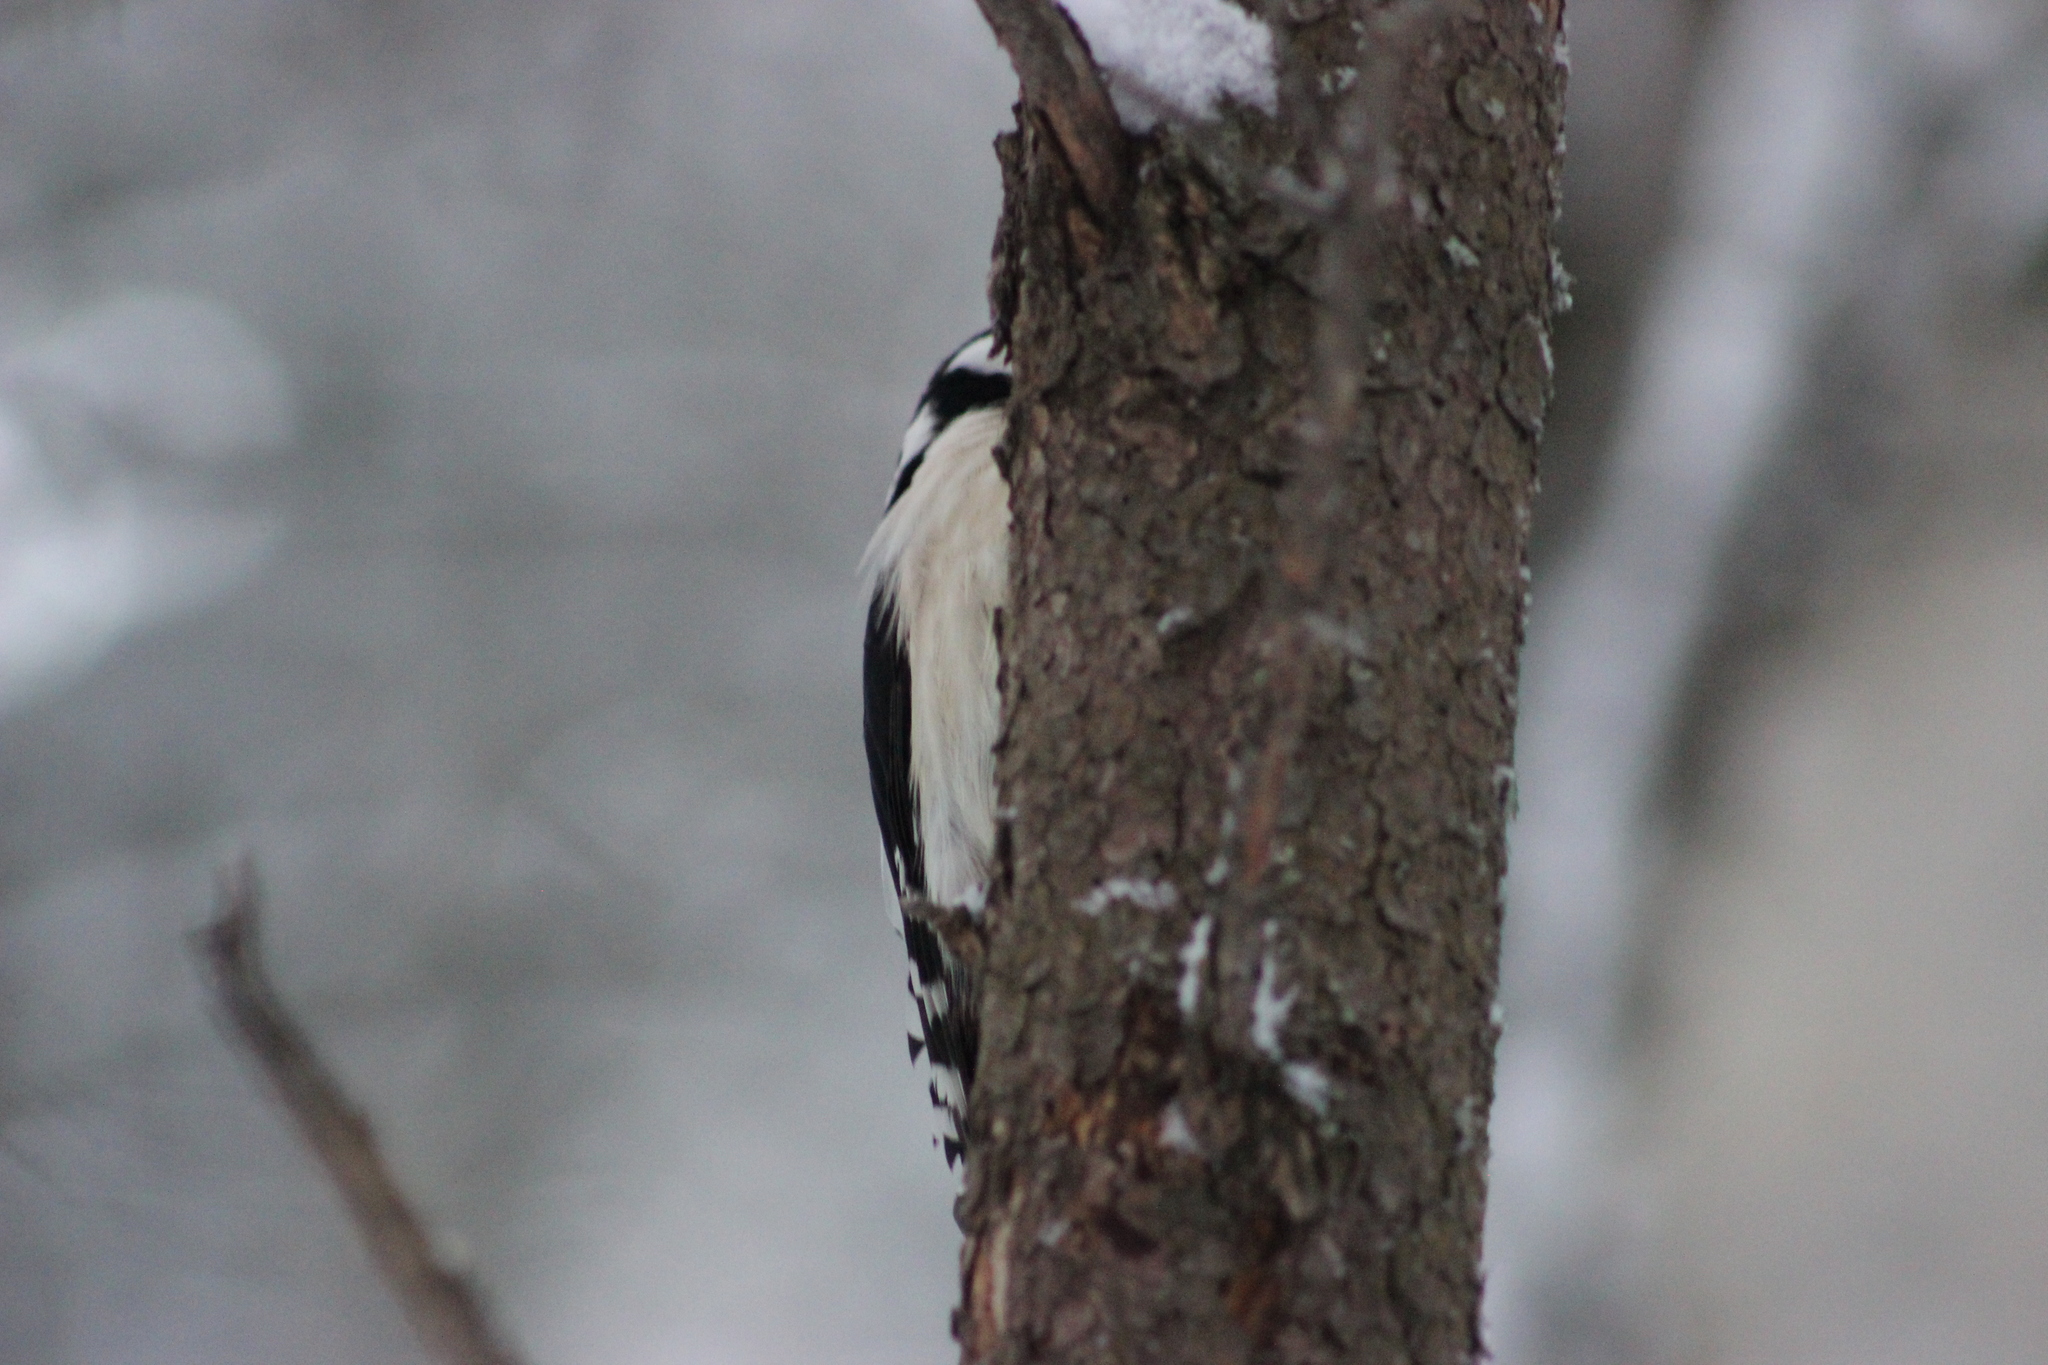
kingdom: Animalia
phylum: Chordata
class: Aves
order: Piciformes
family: Picidae
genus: Dendrocopos
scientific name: Dendrocopos major
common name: Great spotted woodpecker
